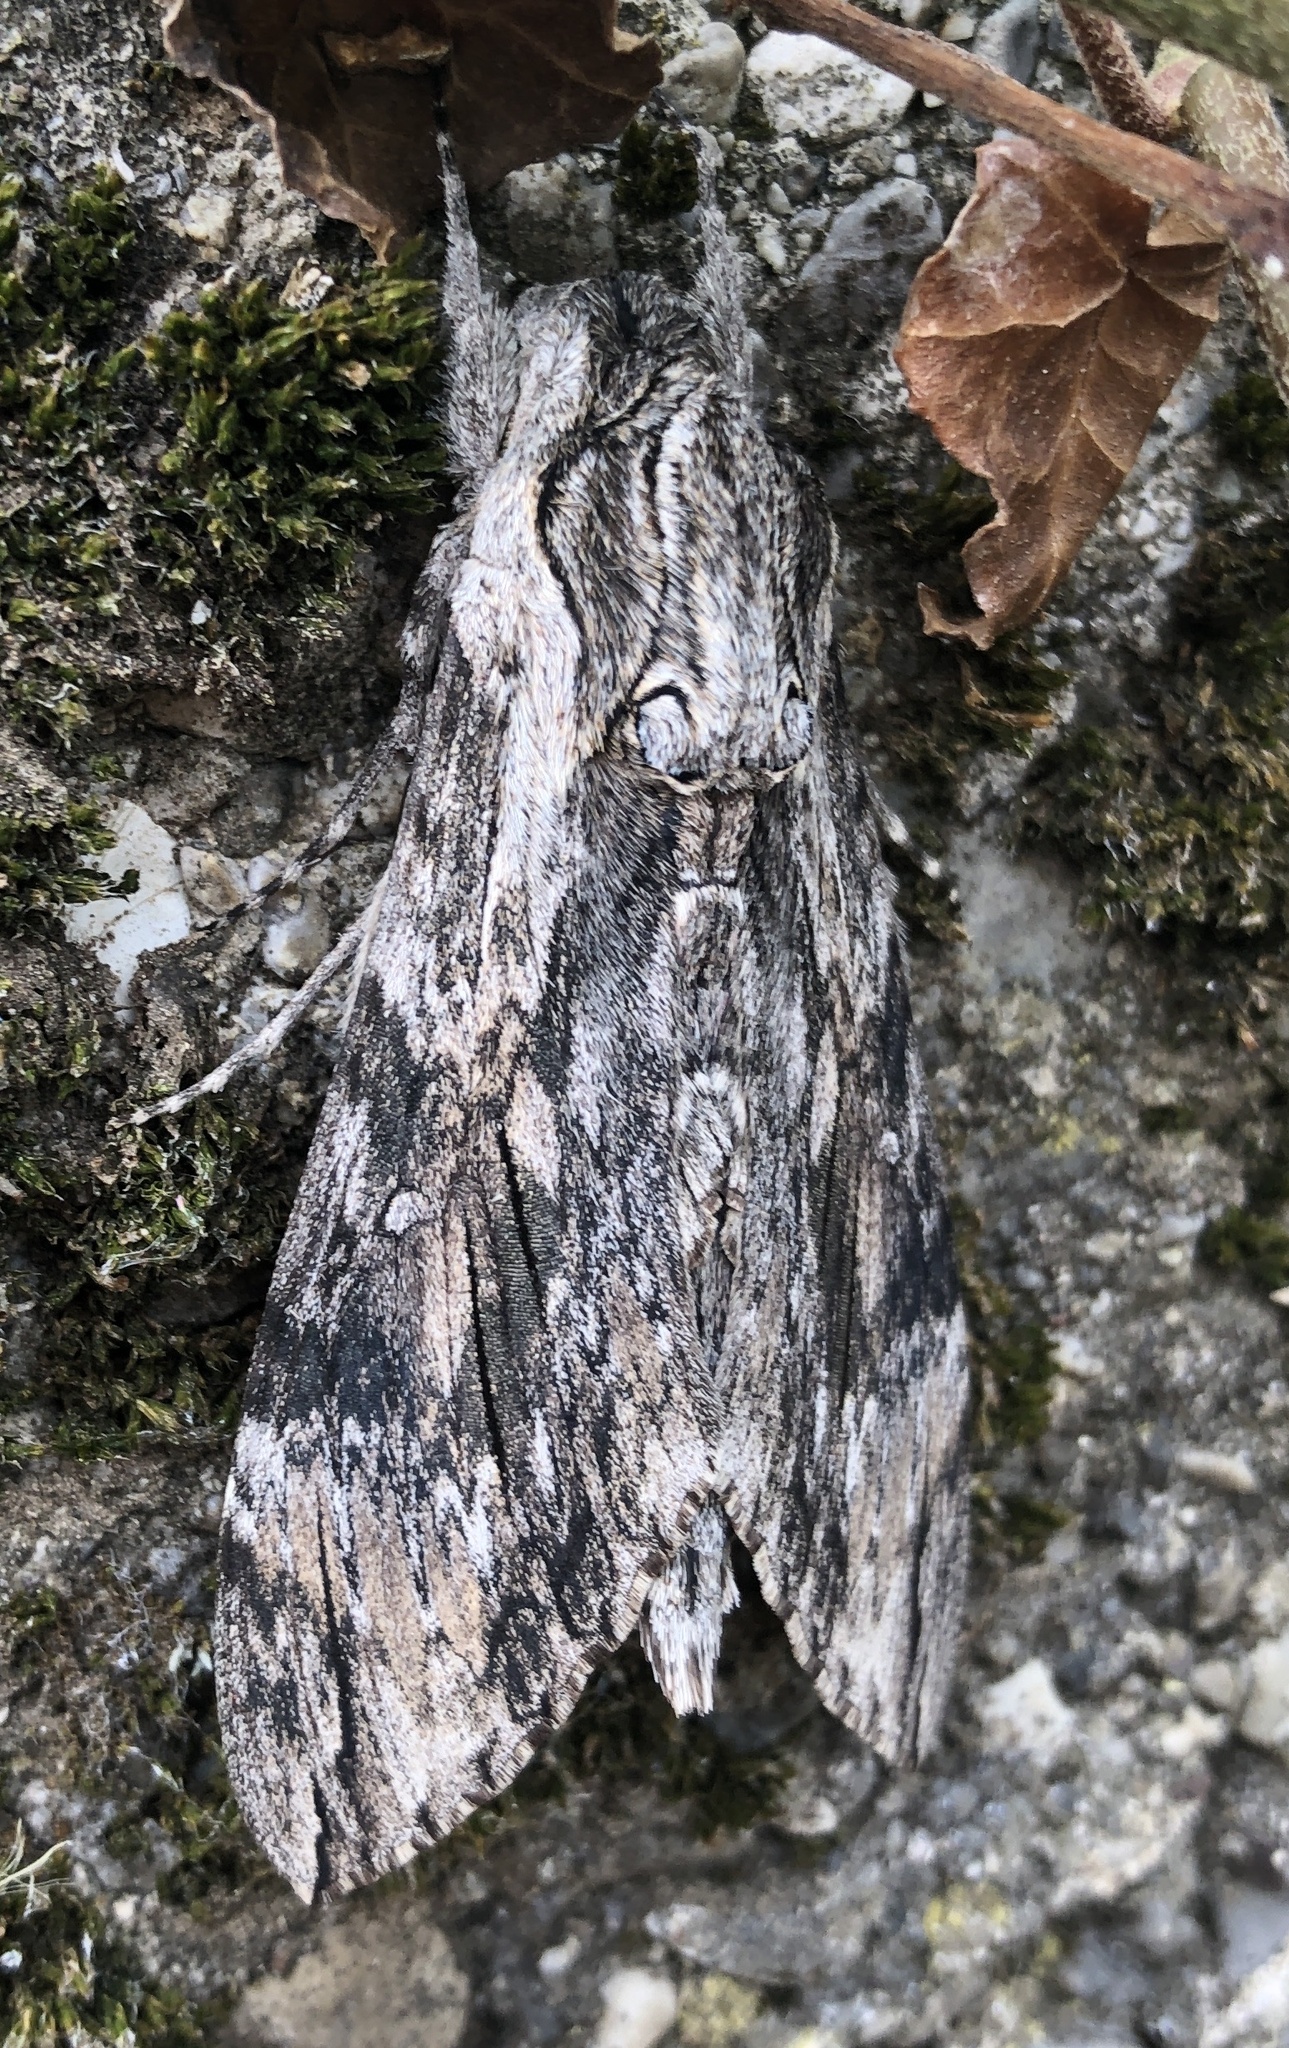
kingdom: Animalia
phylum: Arthropoda
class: Insecta
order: Lepidoptera
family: Sphingidae
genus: Agrius
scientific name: Agrius convolvuli
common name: Convolvulus hawkmoth
